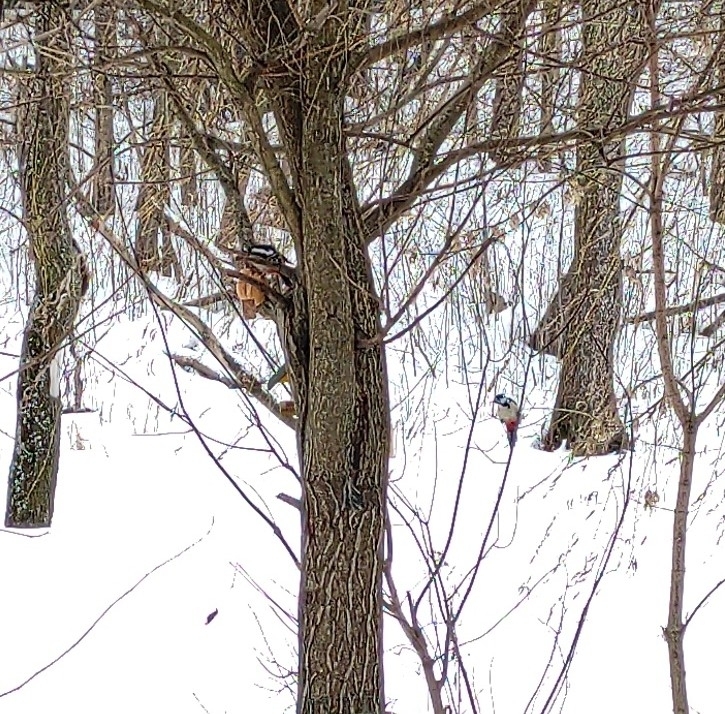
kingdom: Animalia
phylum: Chordata
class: Aves
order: Piciformes
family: Picidae
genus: Dendrocopos
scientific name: Dendrocopos major
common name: Great spotted woodpecker
